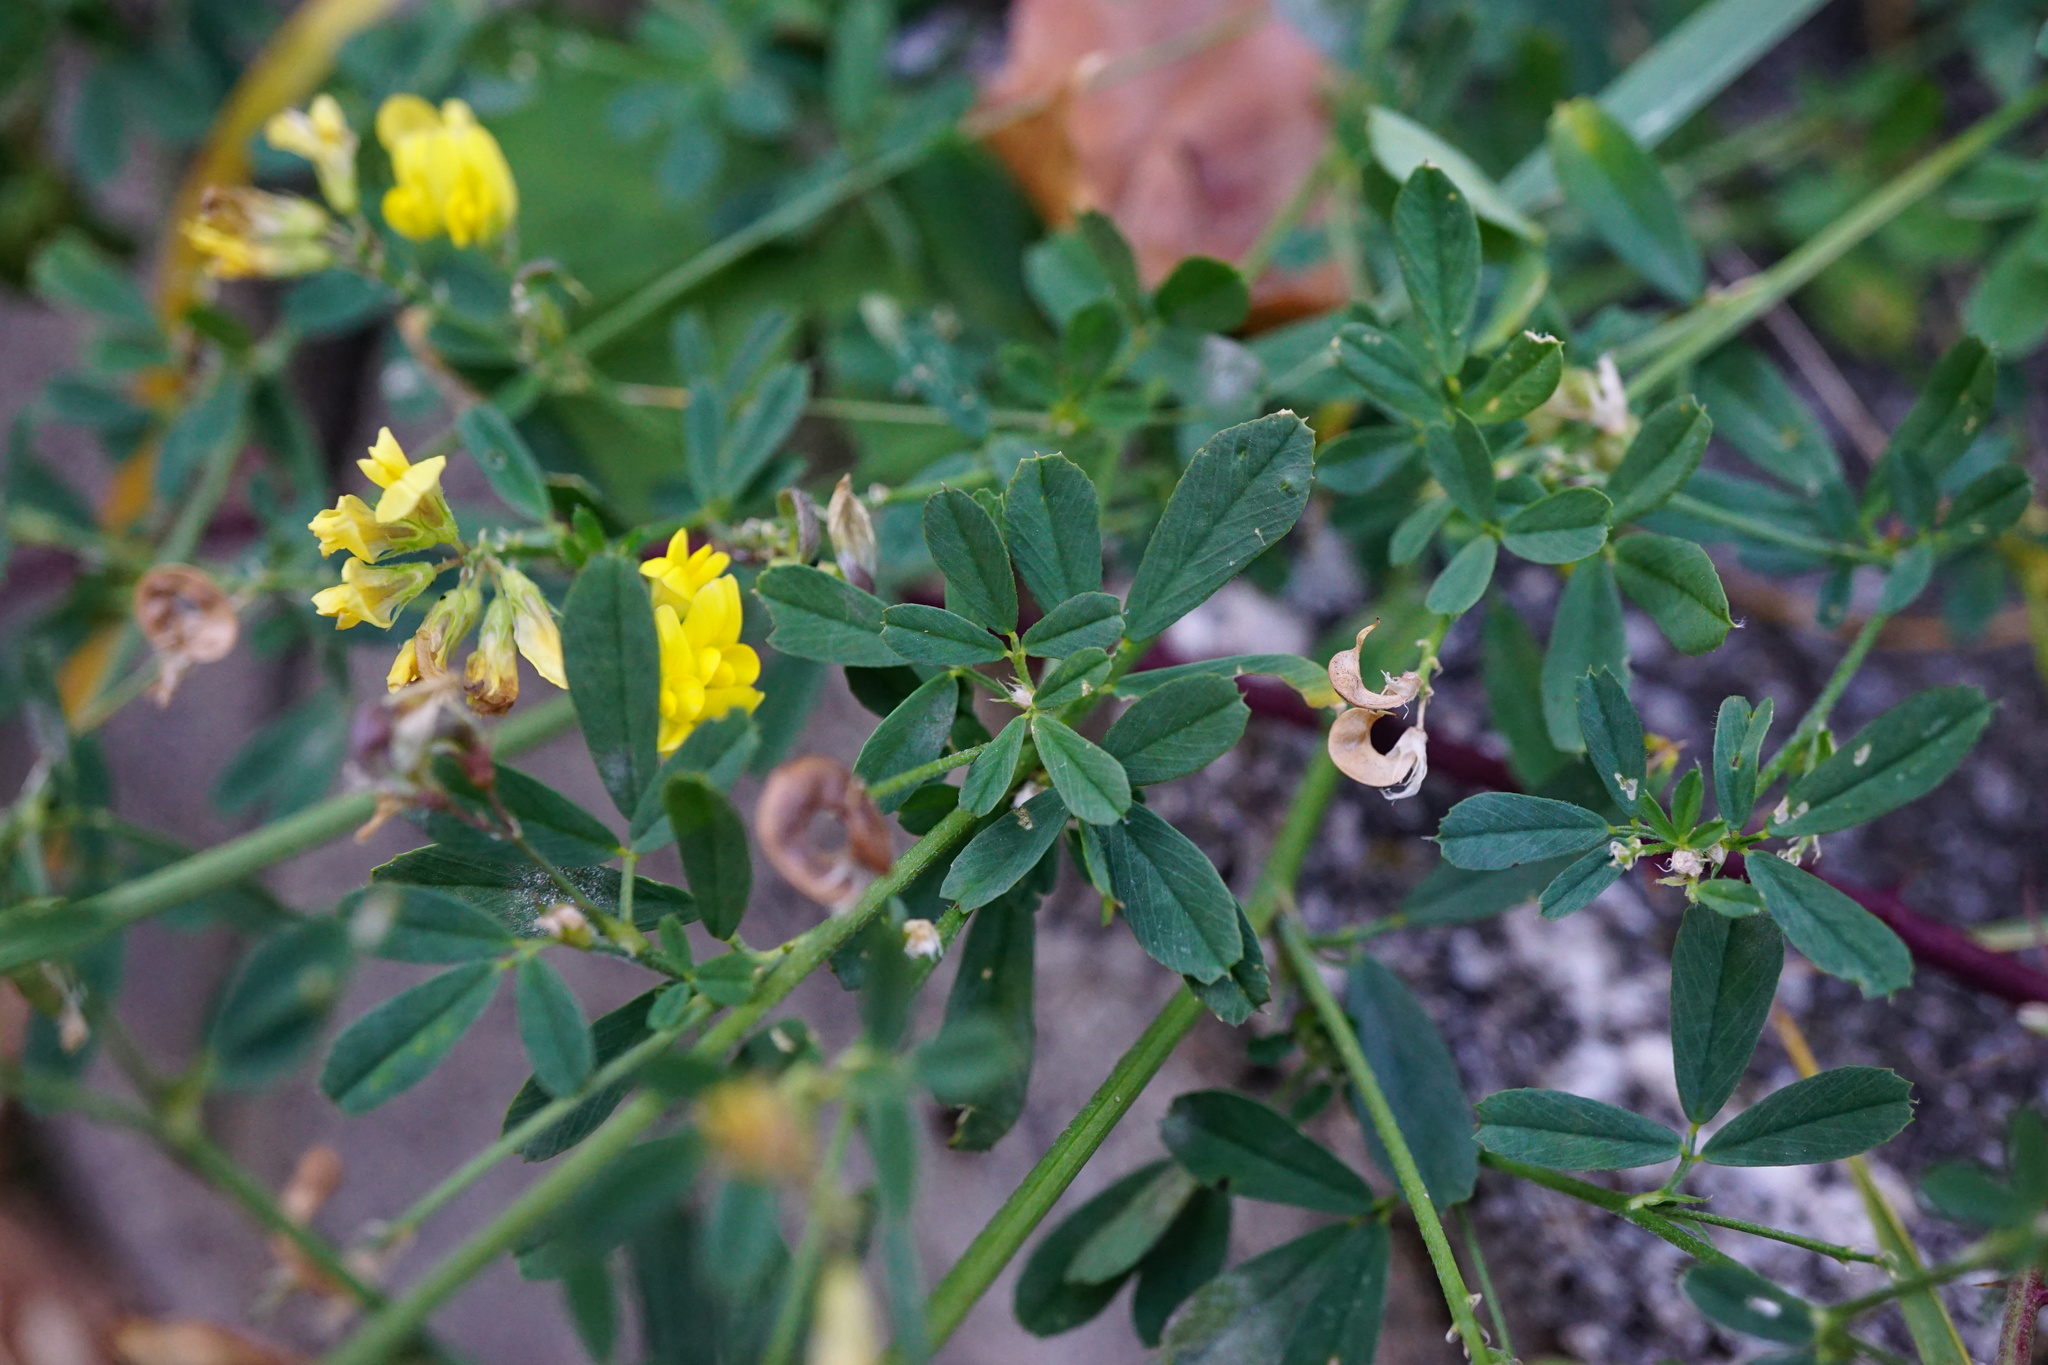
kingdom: Plantae
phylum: Tracheophyta
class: Magnoliopsida
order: Fabales
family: Fabaceae
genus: Medicago
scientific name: Medicago varia
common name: Sand lucerne
